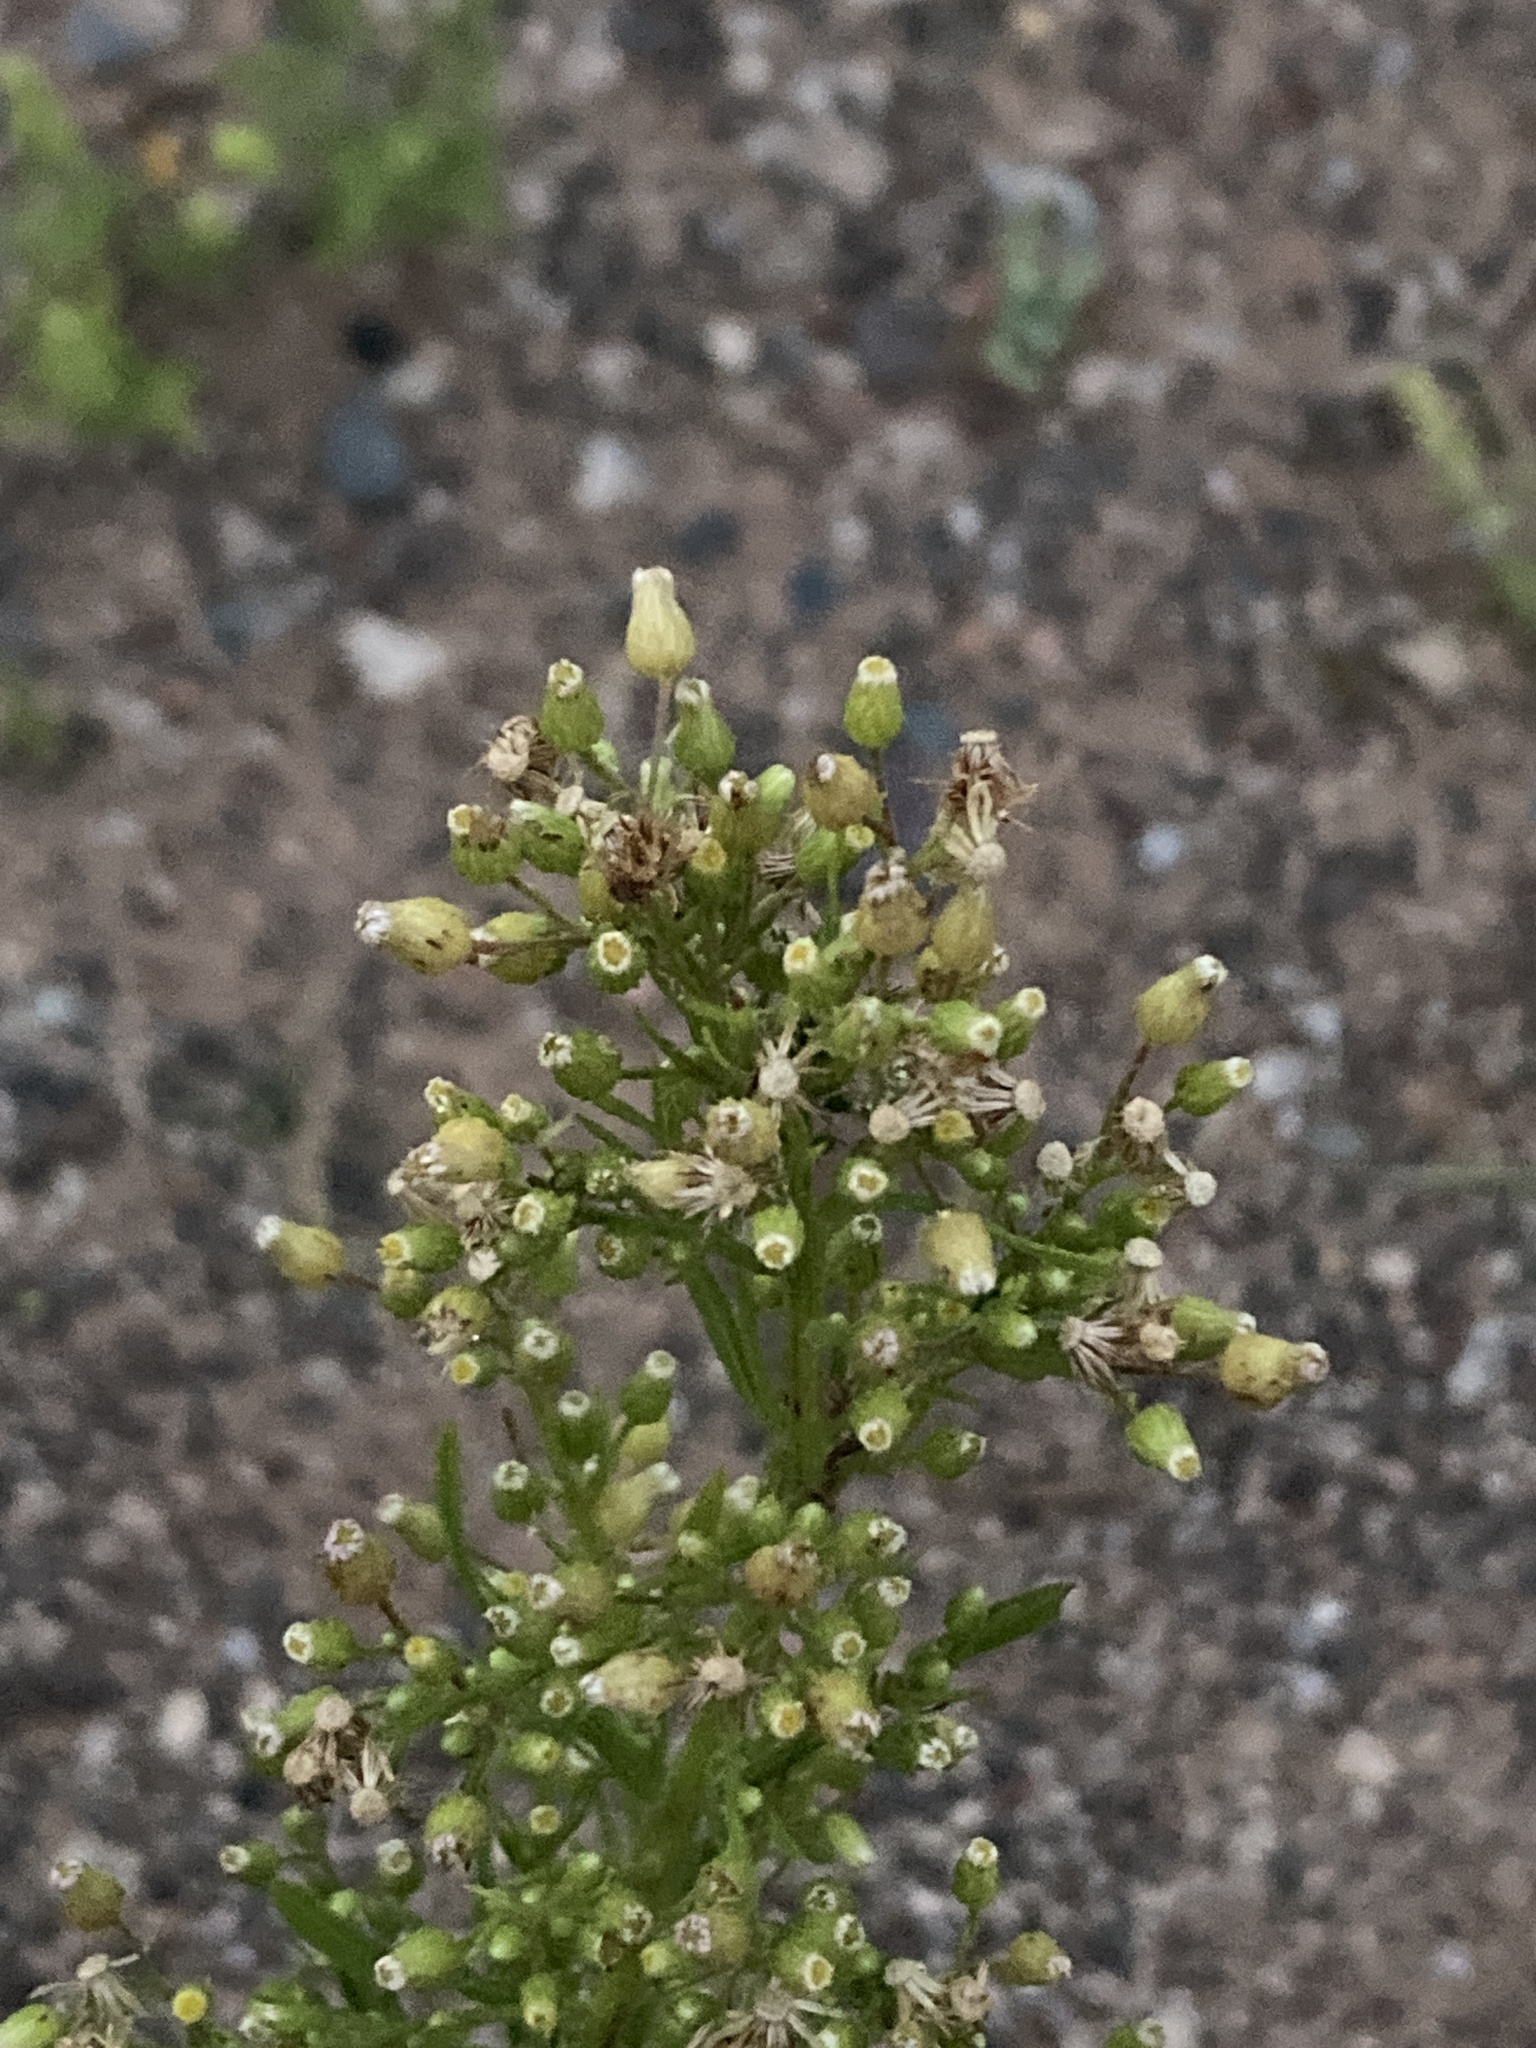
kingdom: Plantae
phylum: Tracheophyta
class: Magnoliopsida
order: Asterales
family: Asteraceae
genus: Erigeron
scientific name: Erigeron canadensis
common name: Canadian fleabane
